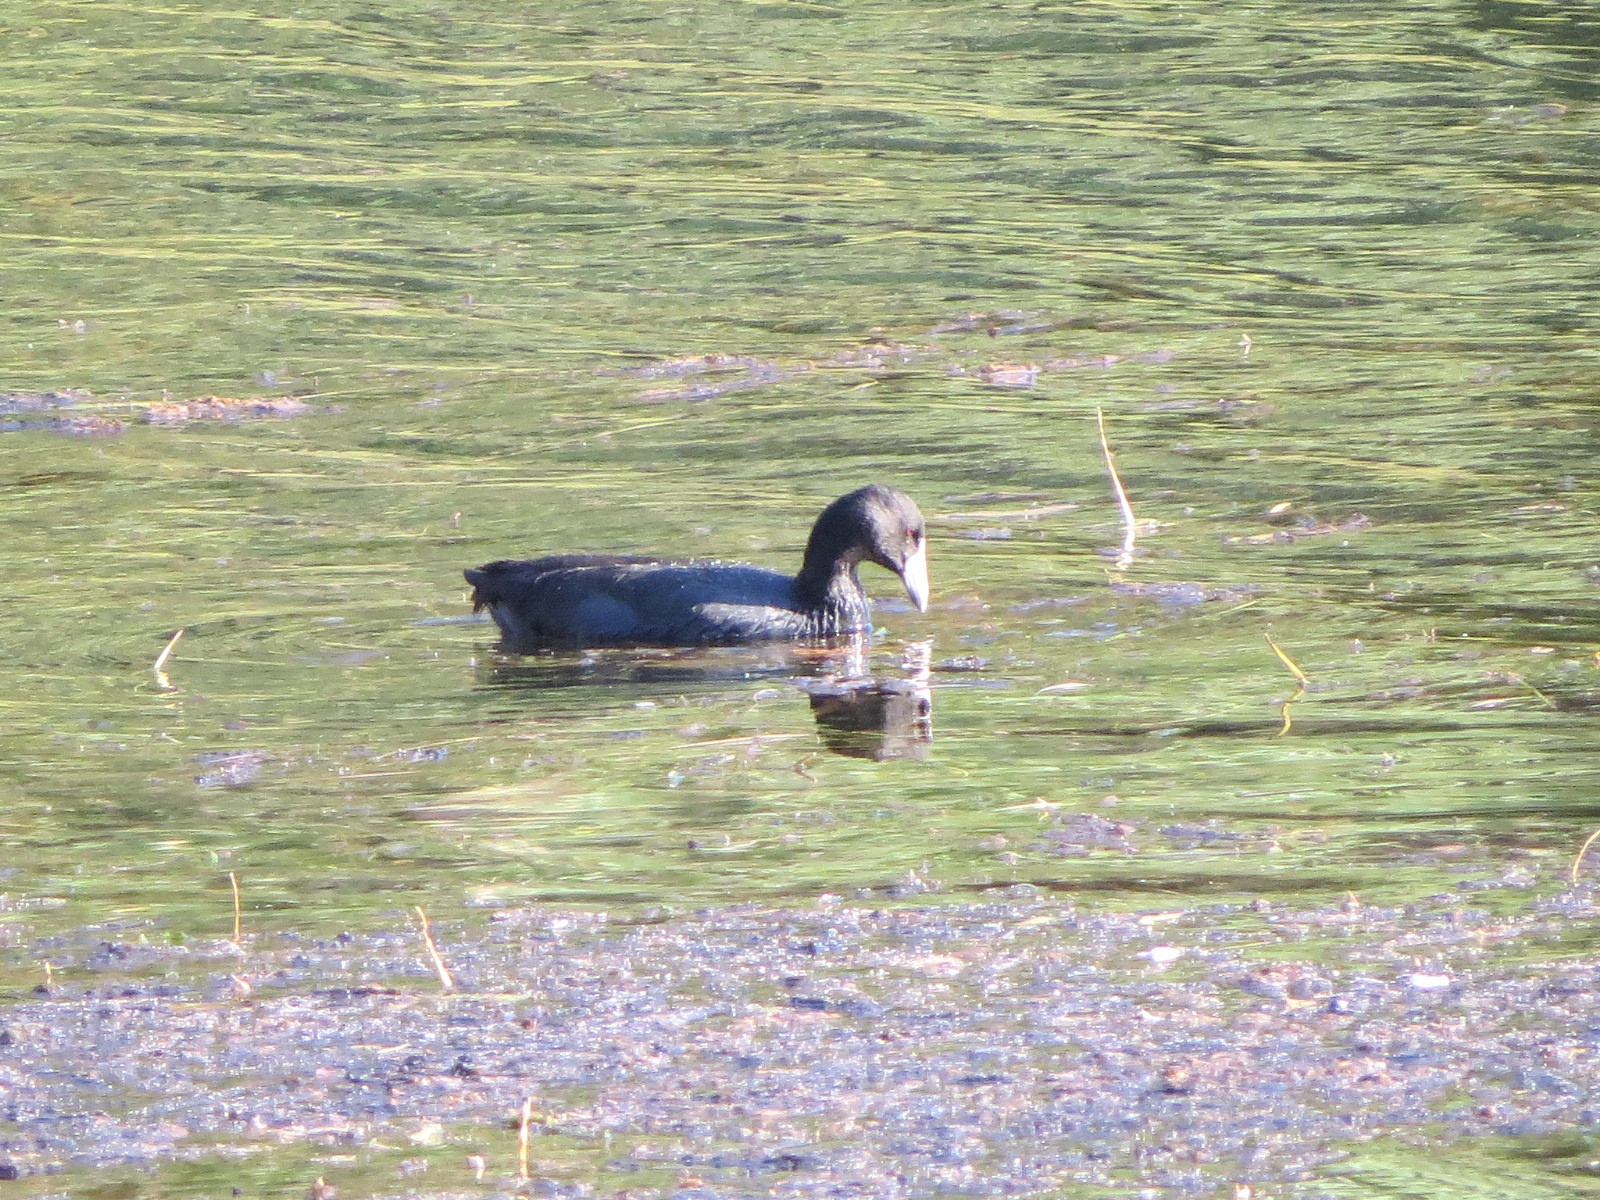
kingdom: Animalia
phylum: Chordata
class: Aves
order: Gruiformes
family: Rallidae
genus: Fulica
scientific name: Fulica americana
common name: American coot
